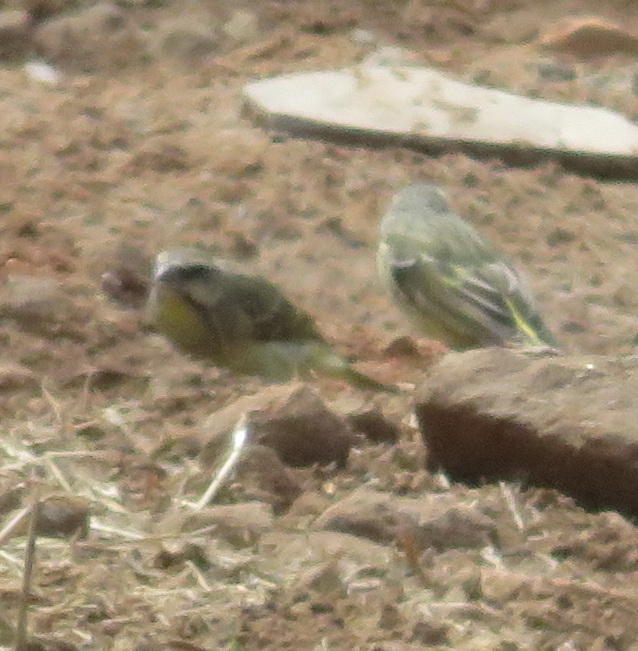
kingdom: Animalia
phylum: Chordata
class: Aves
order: Passeriformes
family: Fringillidae
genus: Crithagra
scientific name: Crithagra mozambica
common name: Yellow-fronted canary
